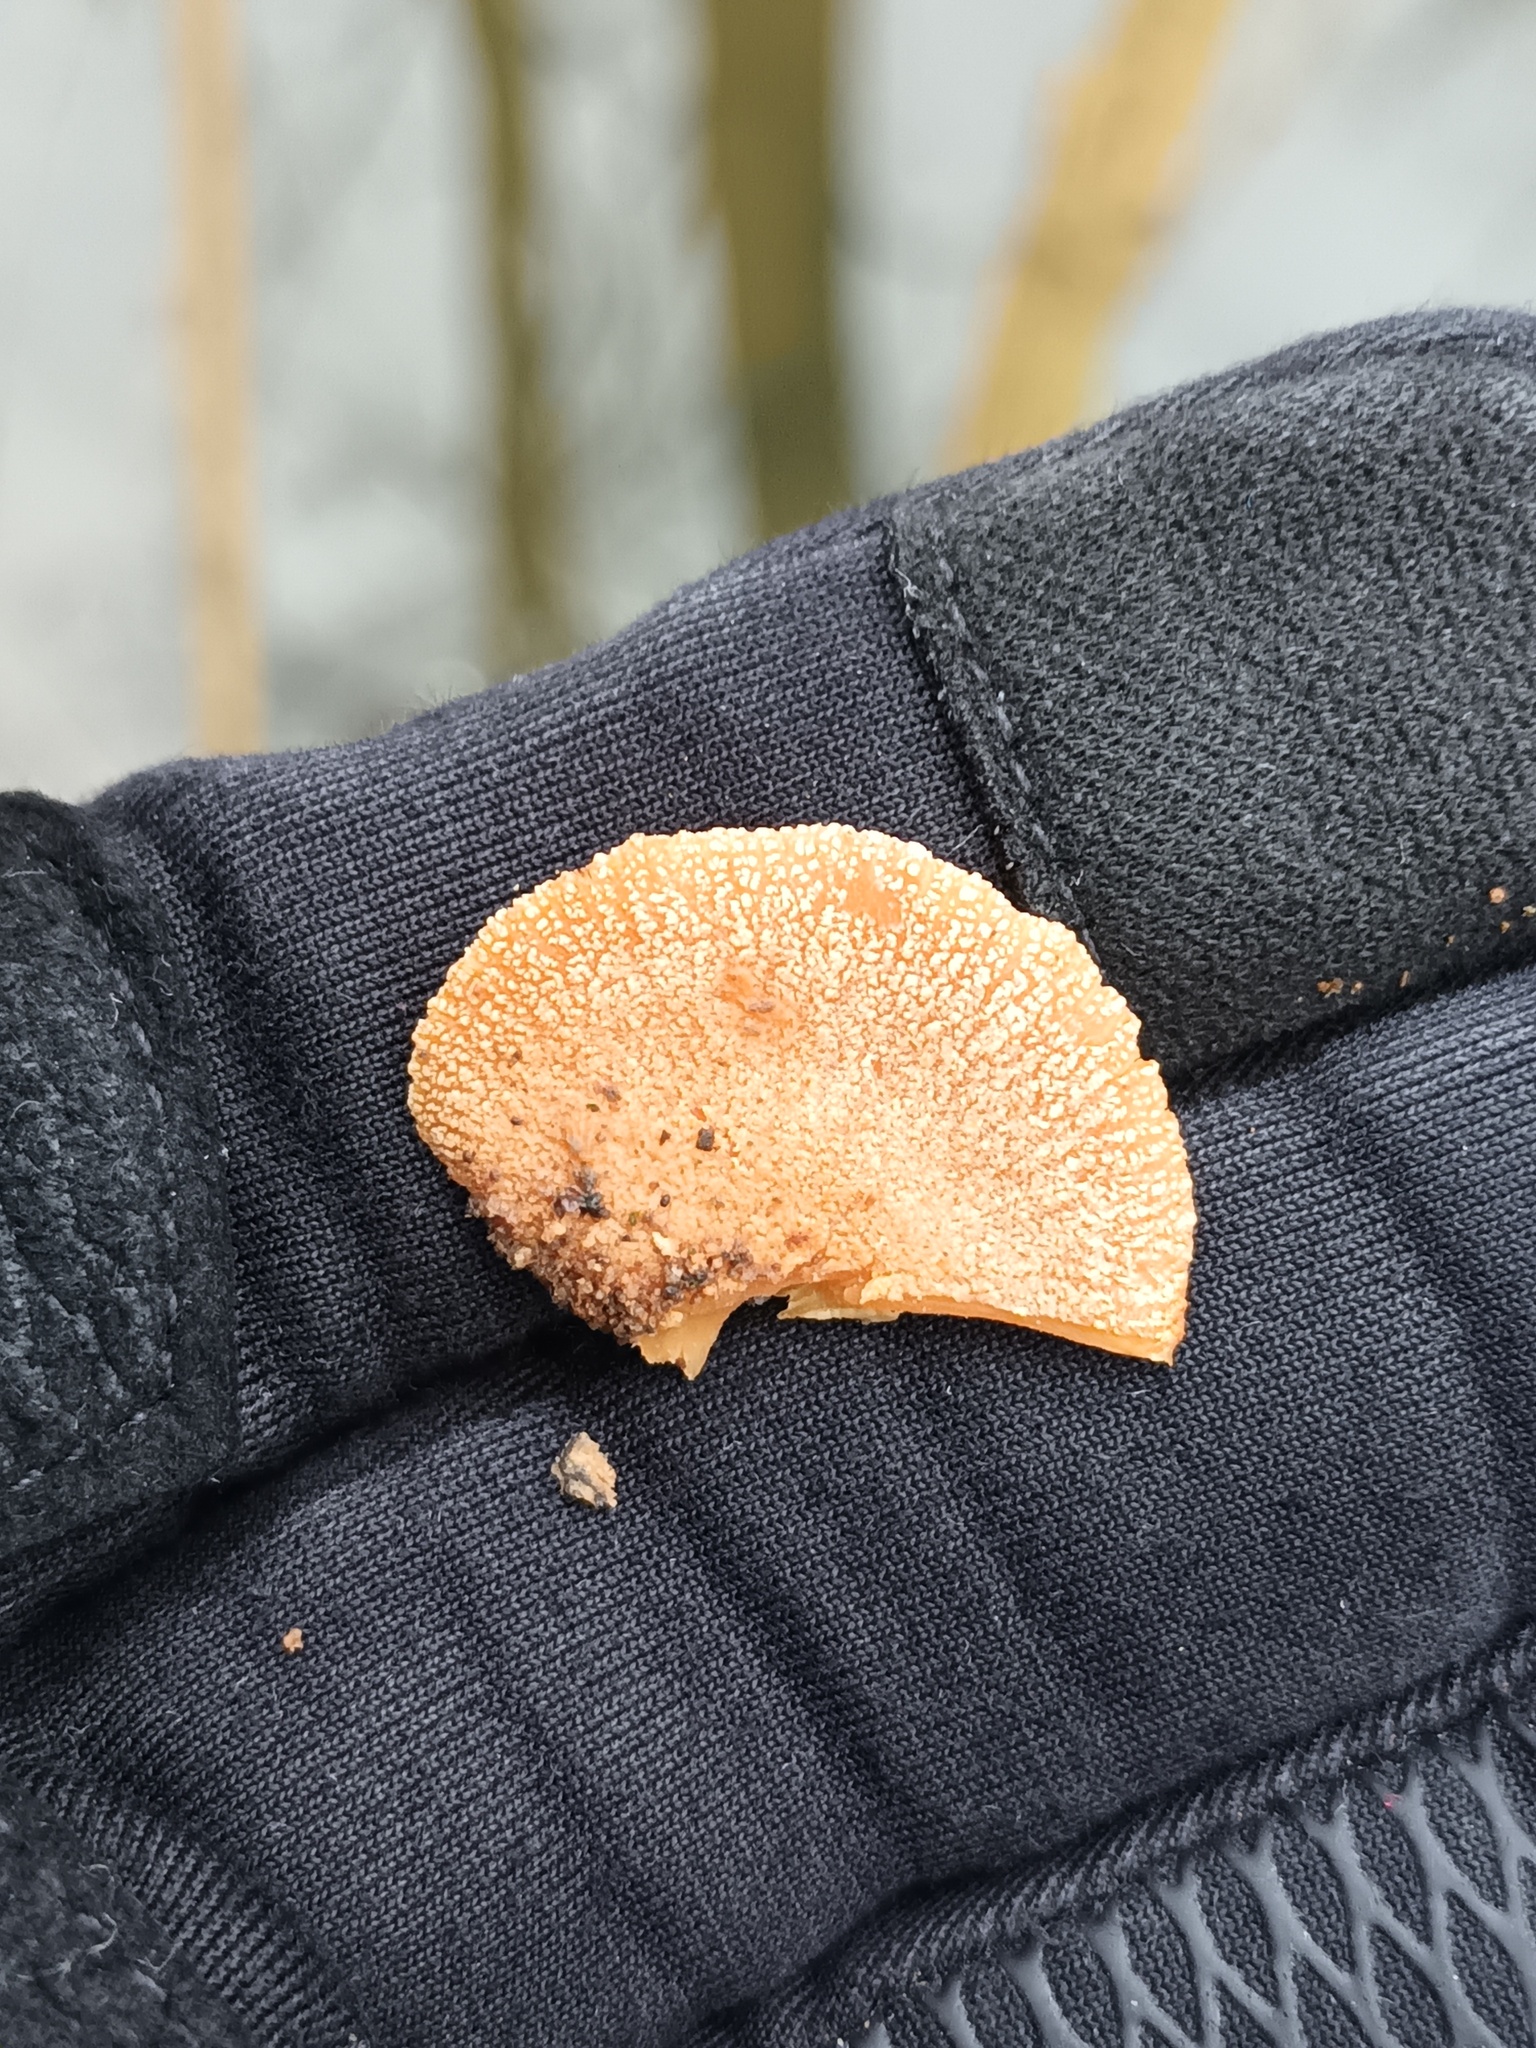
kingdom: Fungi
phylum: Basidiomycota
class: Agaricomycetes
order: Agaricales
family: Mycenaceae
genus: Panellus
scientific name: Panellus stipticus
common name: Bitter oysterling
